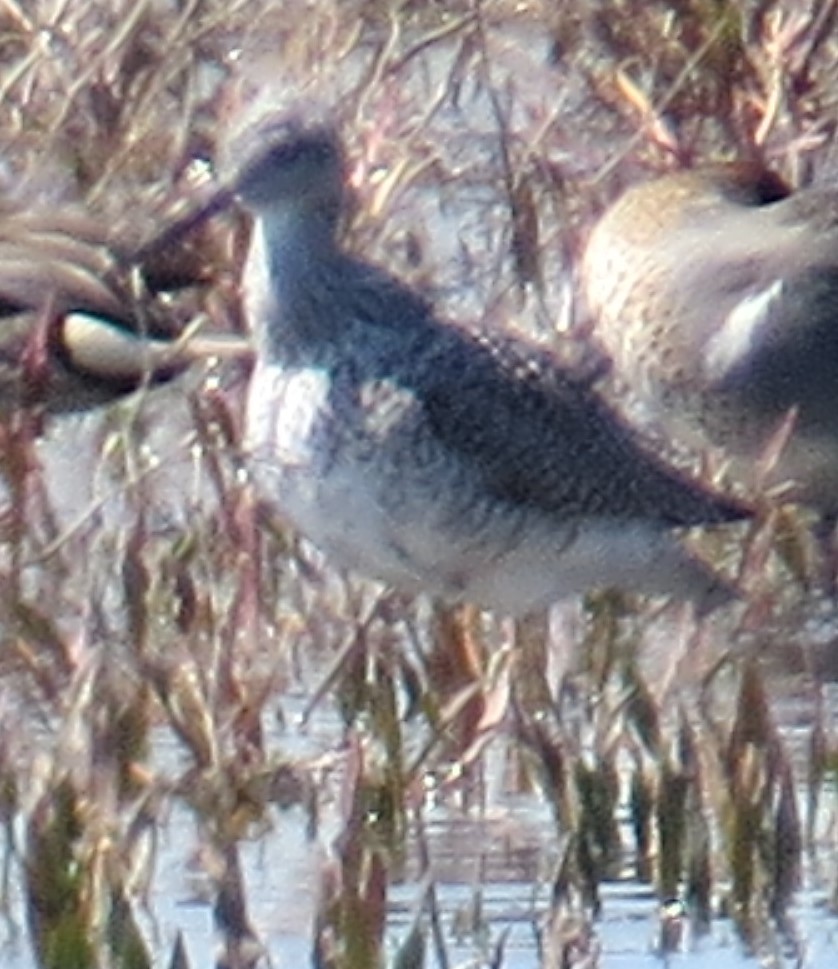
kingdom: Animalia
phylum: Chordata
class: Aves
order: Charadriiformes
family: Scolopacidae
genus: Tringa
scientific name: Tringa melanoleuca
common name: Greater yellowlegs
